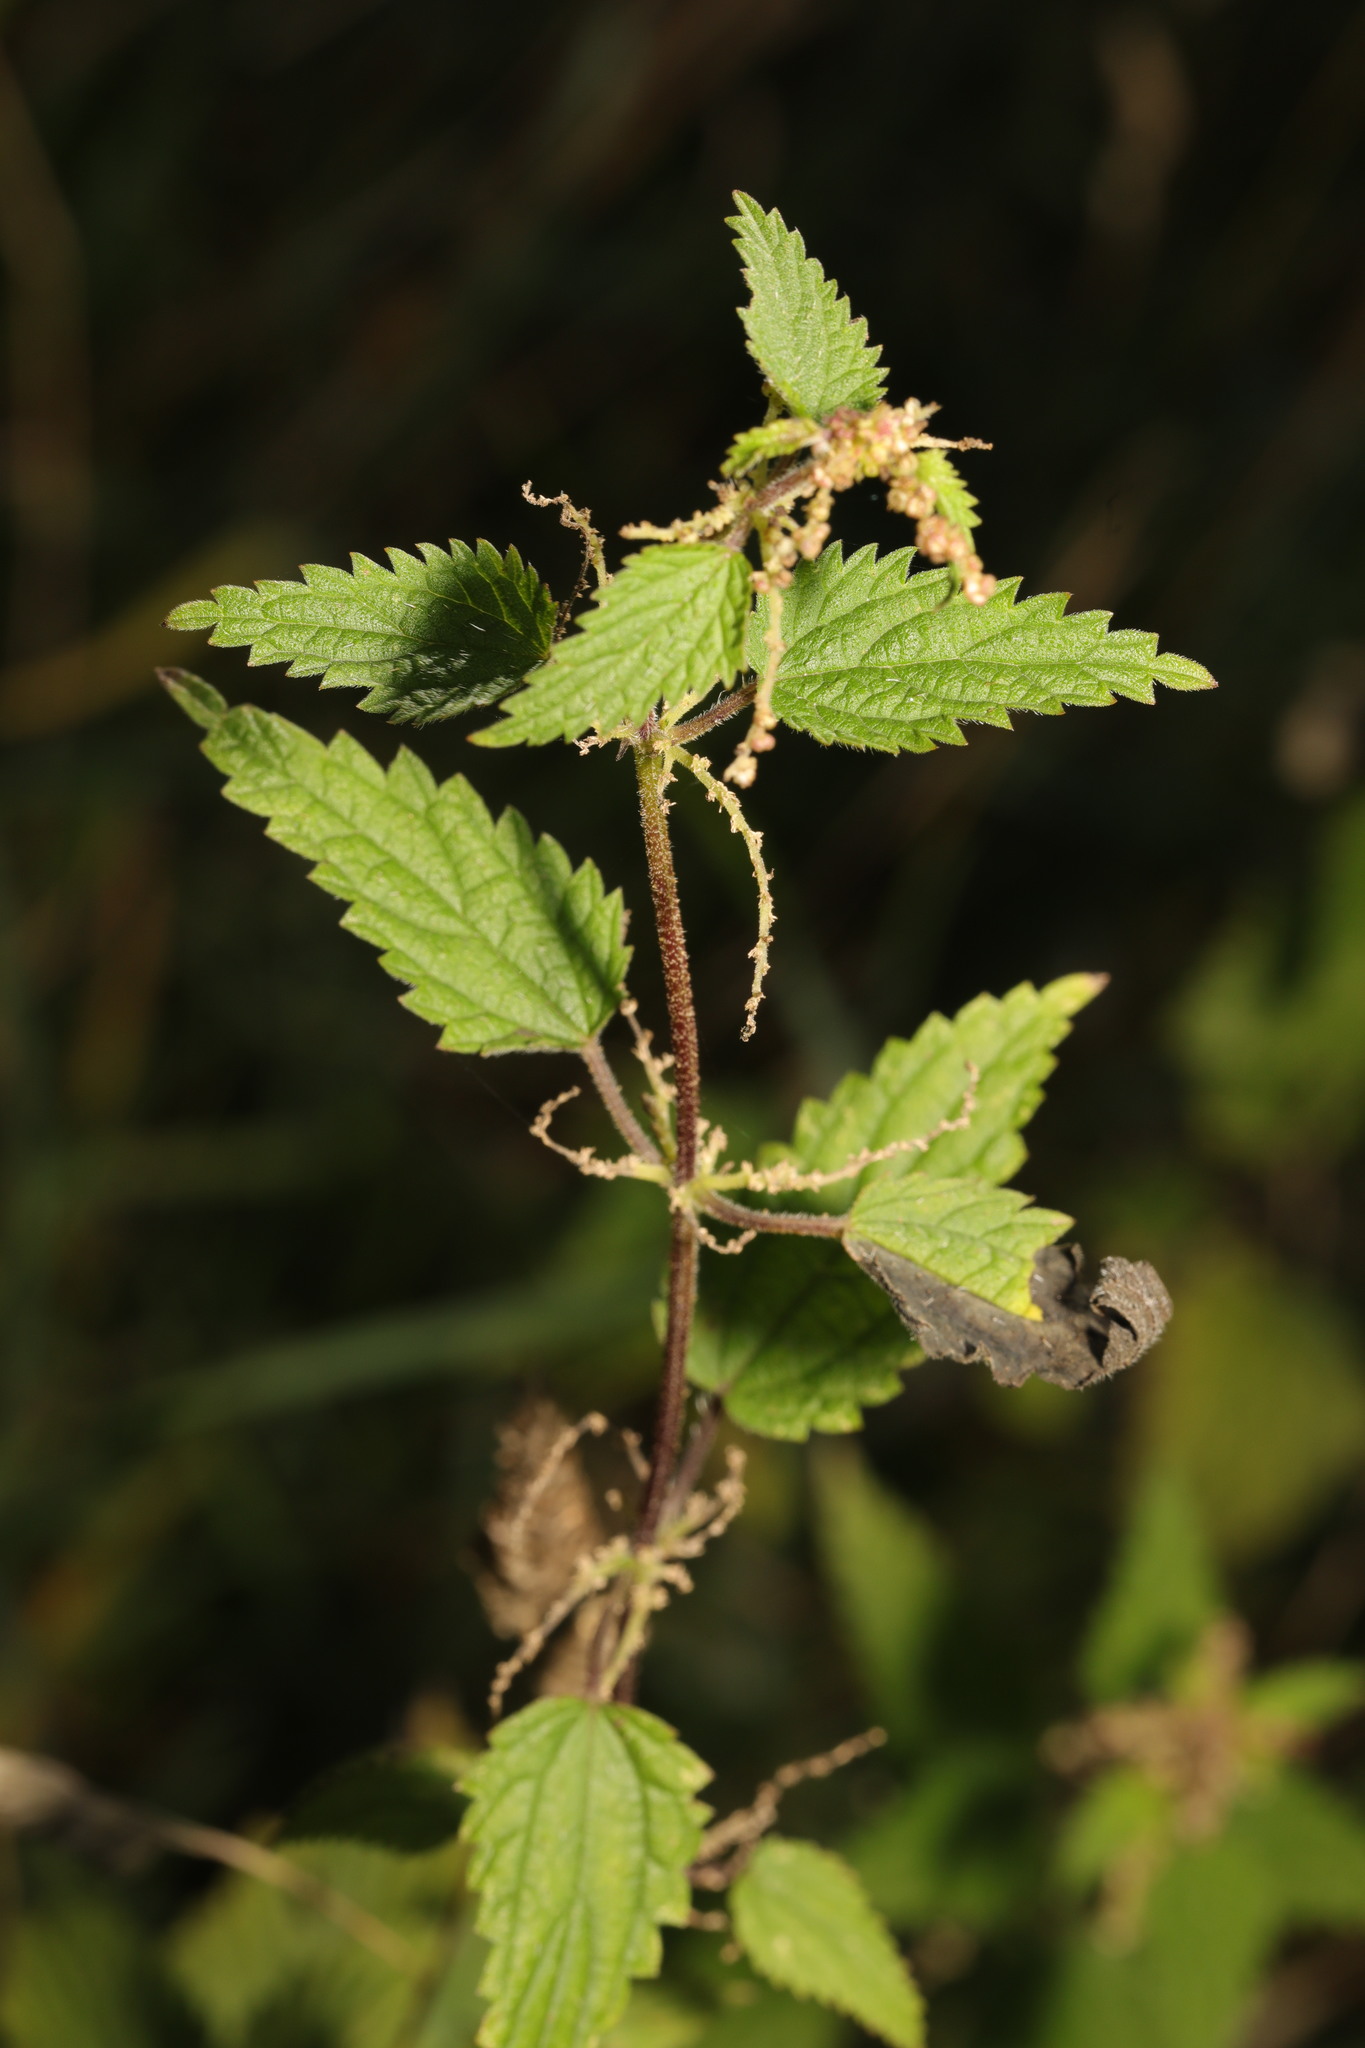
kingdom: Plantae
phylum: Tracheophyta
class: Magnoliopsida
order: Rosales
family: Urticaceae
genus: Urtica
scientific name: Urtica dioica
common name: Common nettle
